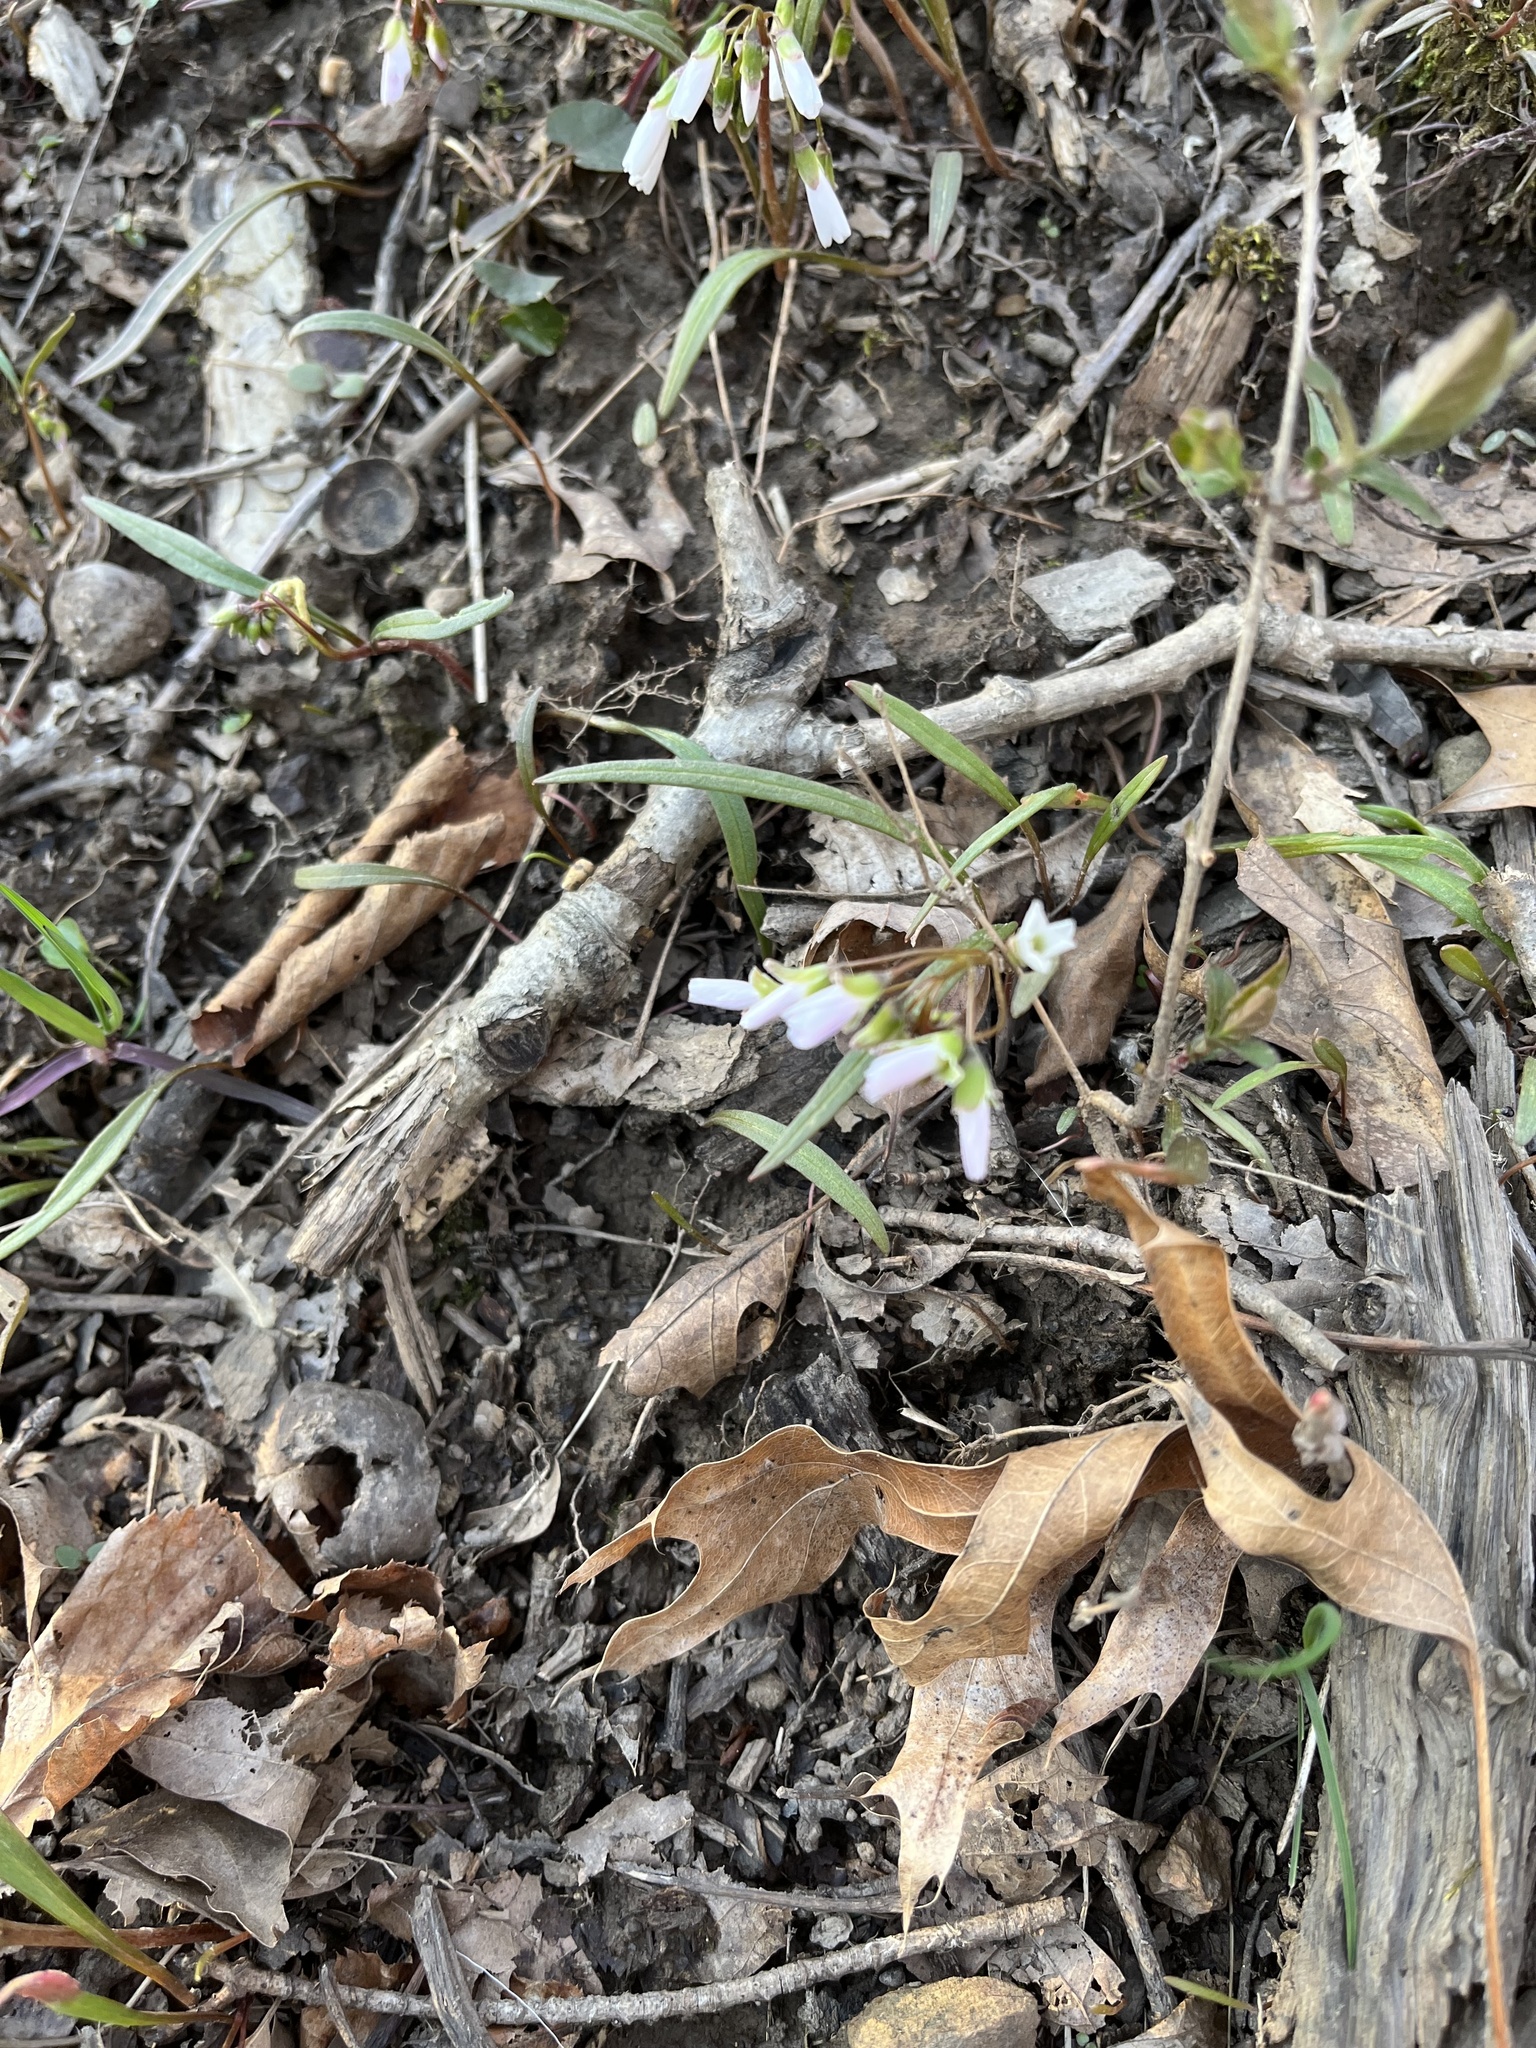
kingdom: Plantae
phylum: Tracheophyta
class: Magnoliopsida
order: Caryophyllales
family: Montiaceae
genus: Claytonia
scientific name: Claytonia virginica
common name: Virginia springbeauty
